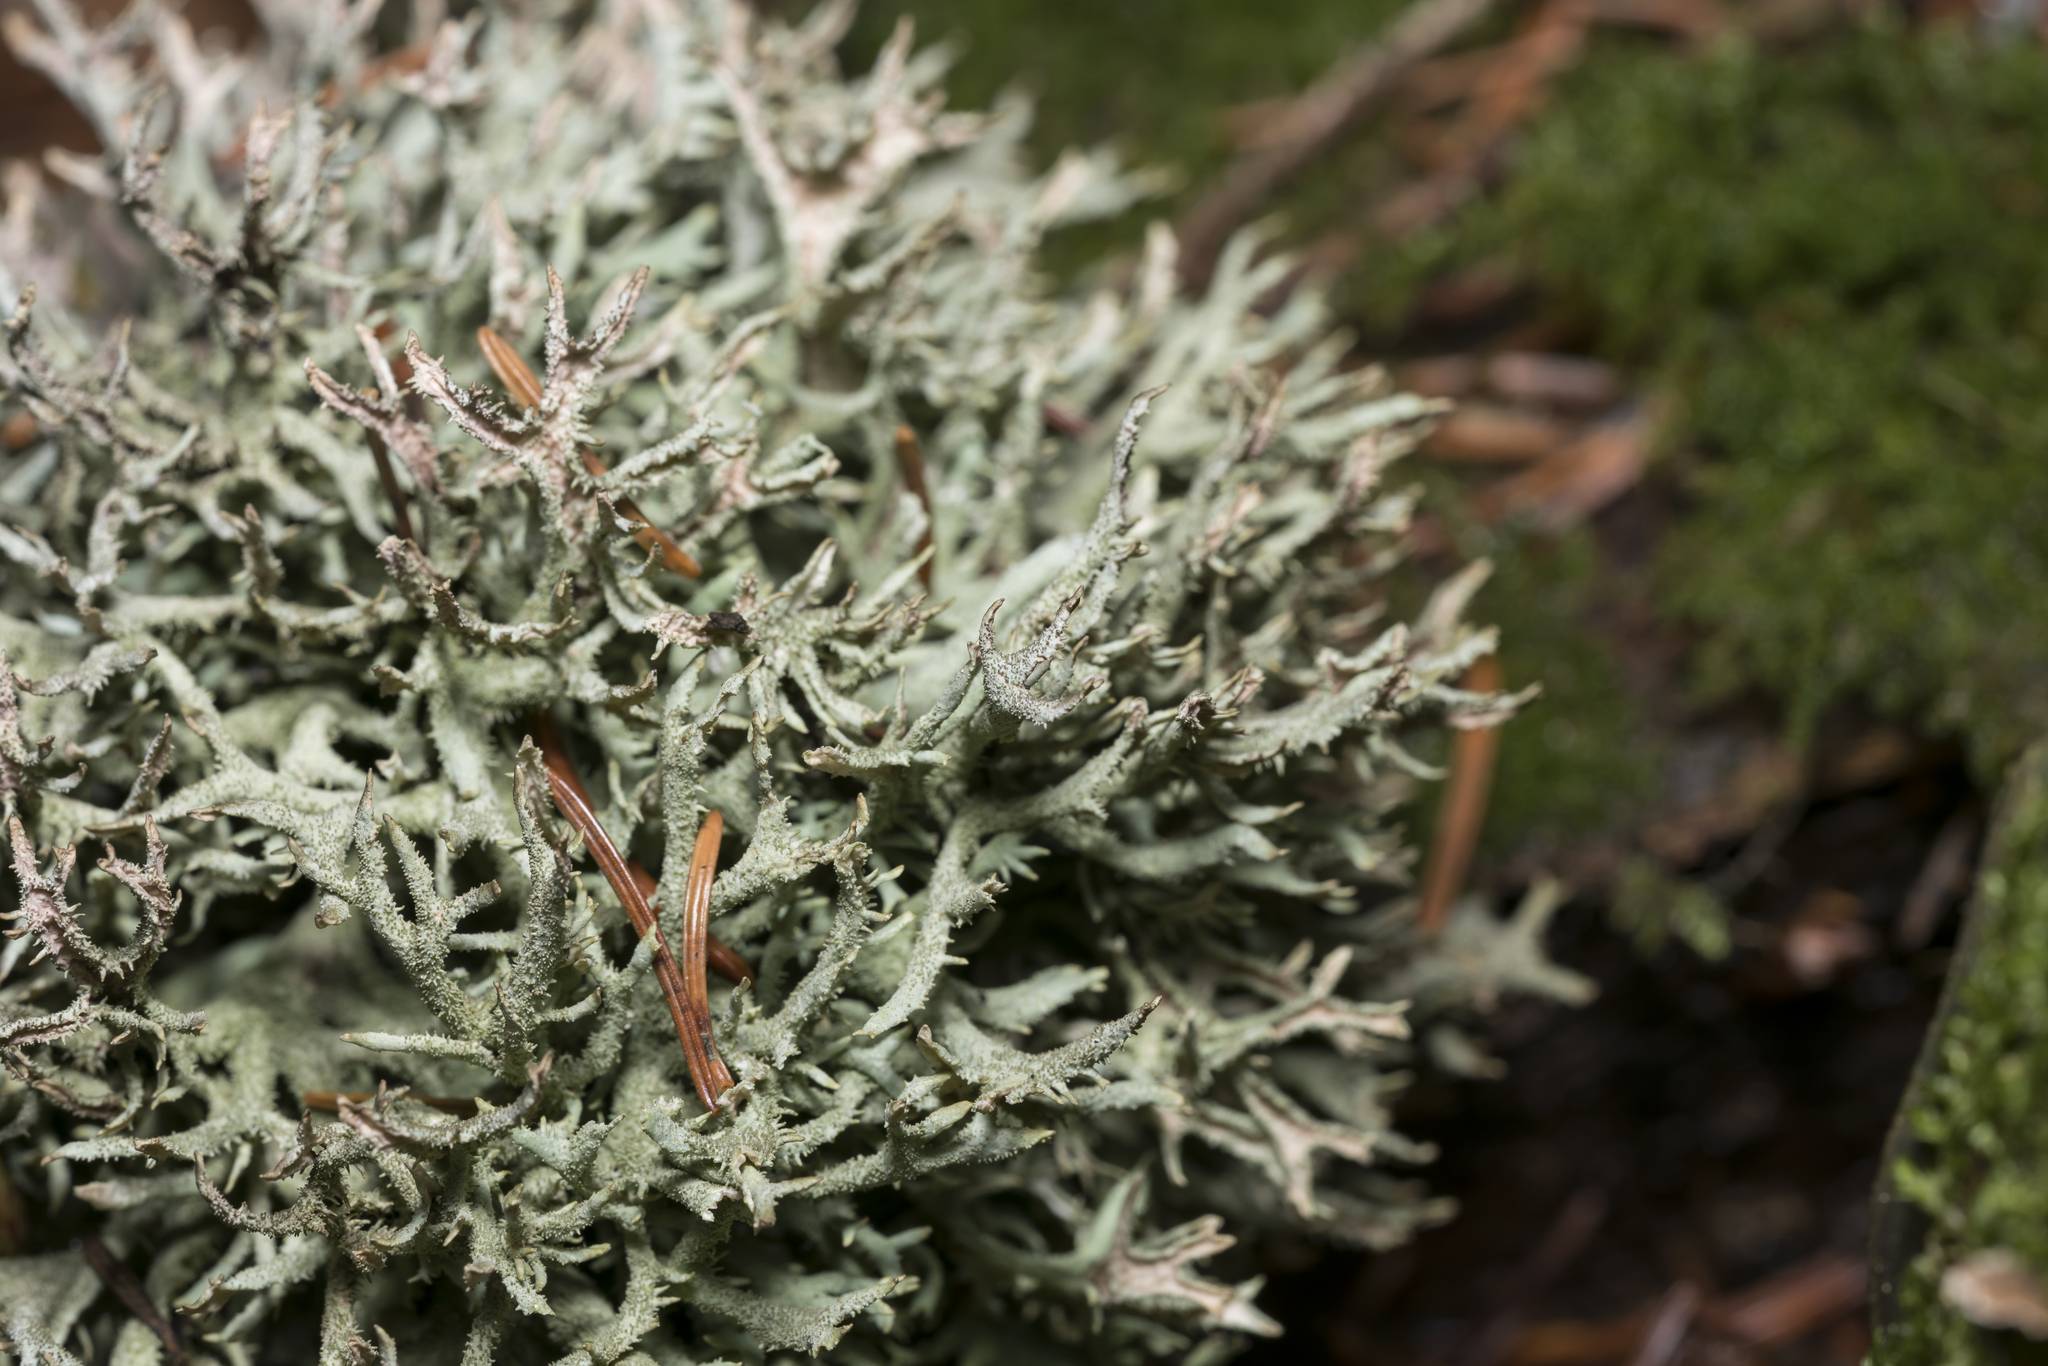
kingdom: Fungi
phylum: Ascomycota
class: Lecanoromycetes
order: Lecanorales
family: Parmeliaceae
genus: Pseudevernia
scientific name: Pseudevernia furfuracea
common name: Tree moss
